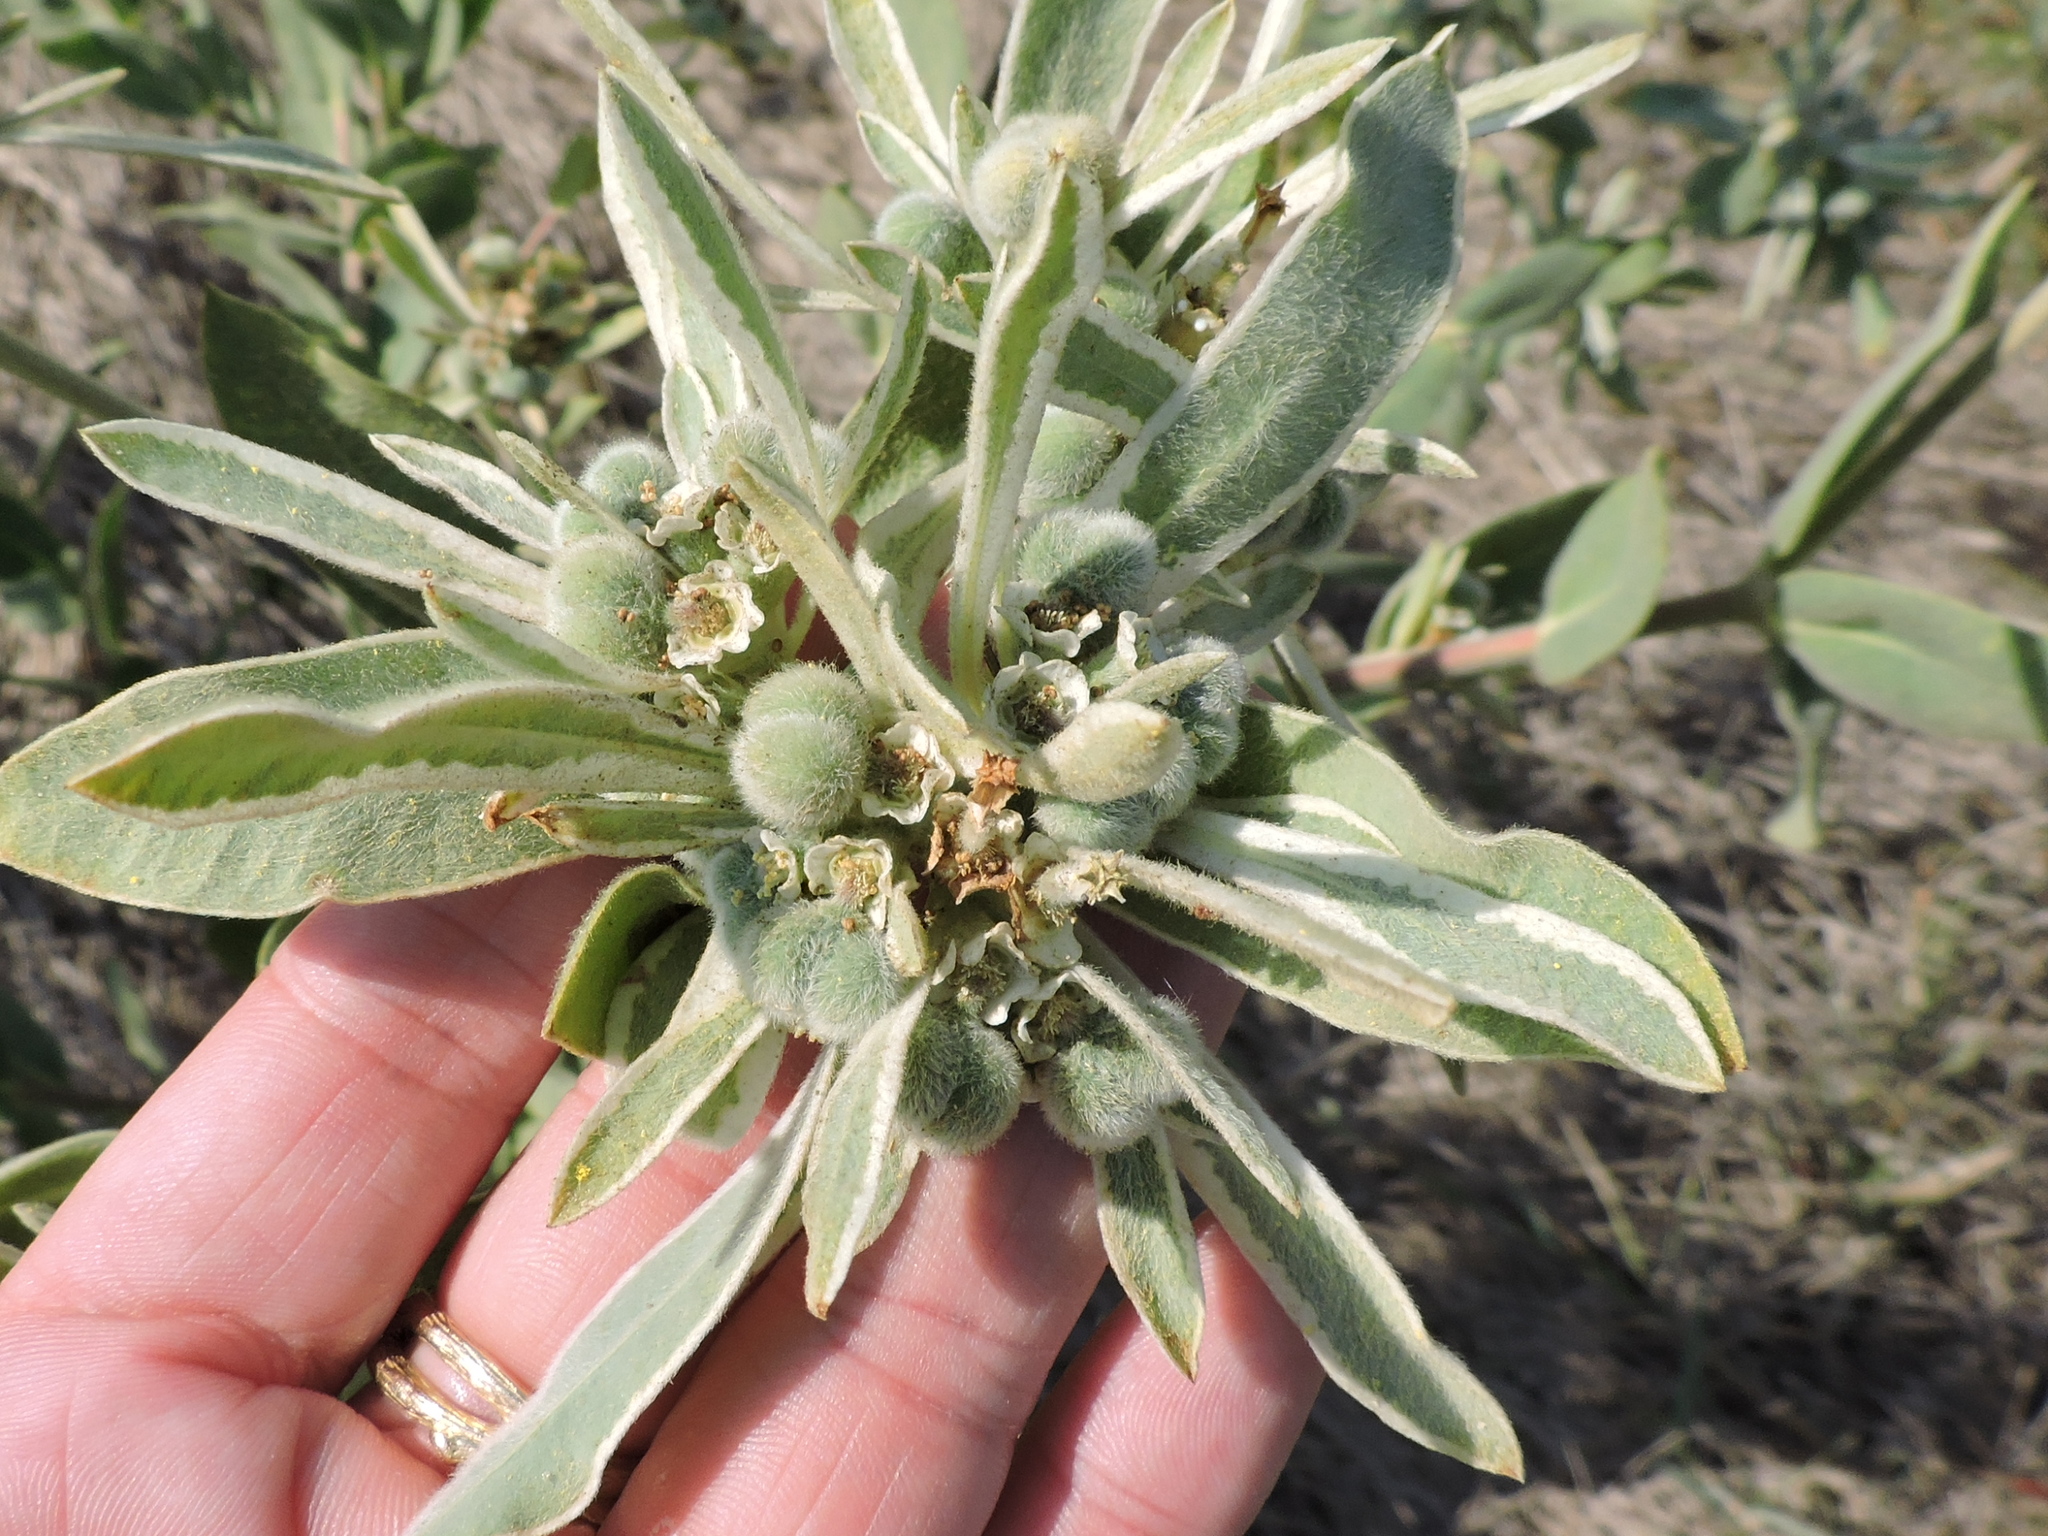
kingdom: Plantae
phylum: Tracheophyta
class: Magnoliopsida
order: Malpighiales
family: Euphorbiaceae
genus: Euphorbia
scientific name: Euphorbia bicolor
